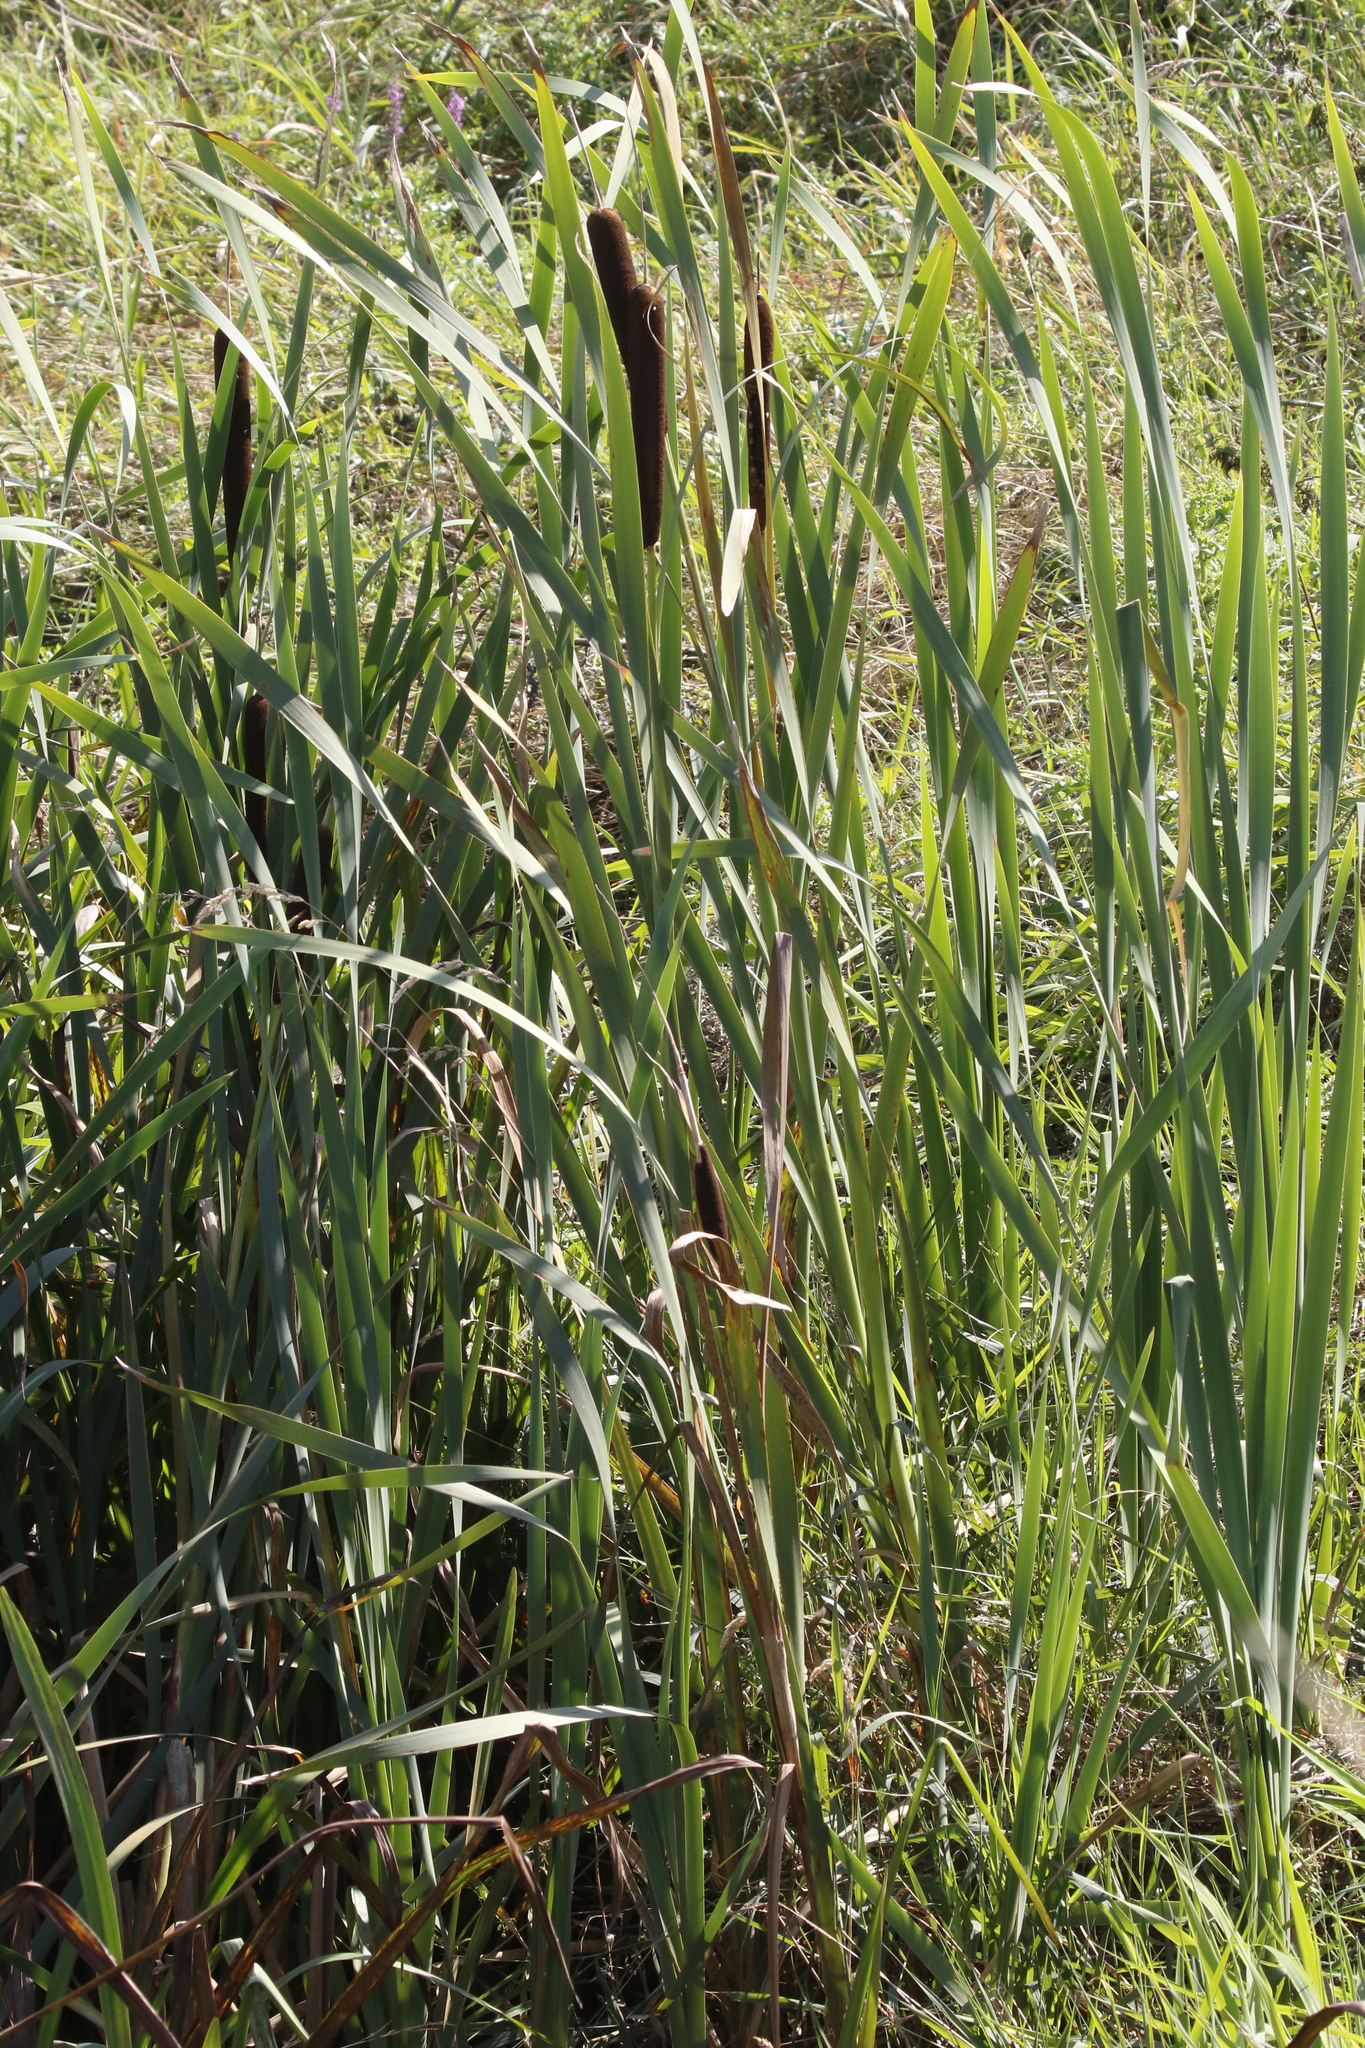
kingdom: Plantae
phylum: Tracheophyta
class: Liliopsida
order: Poales
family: Typhaceae
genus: Typha
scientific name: Typha latifolia
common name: Broadleaf cattail
